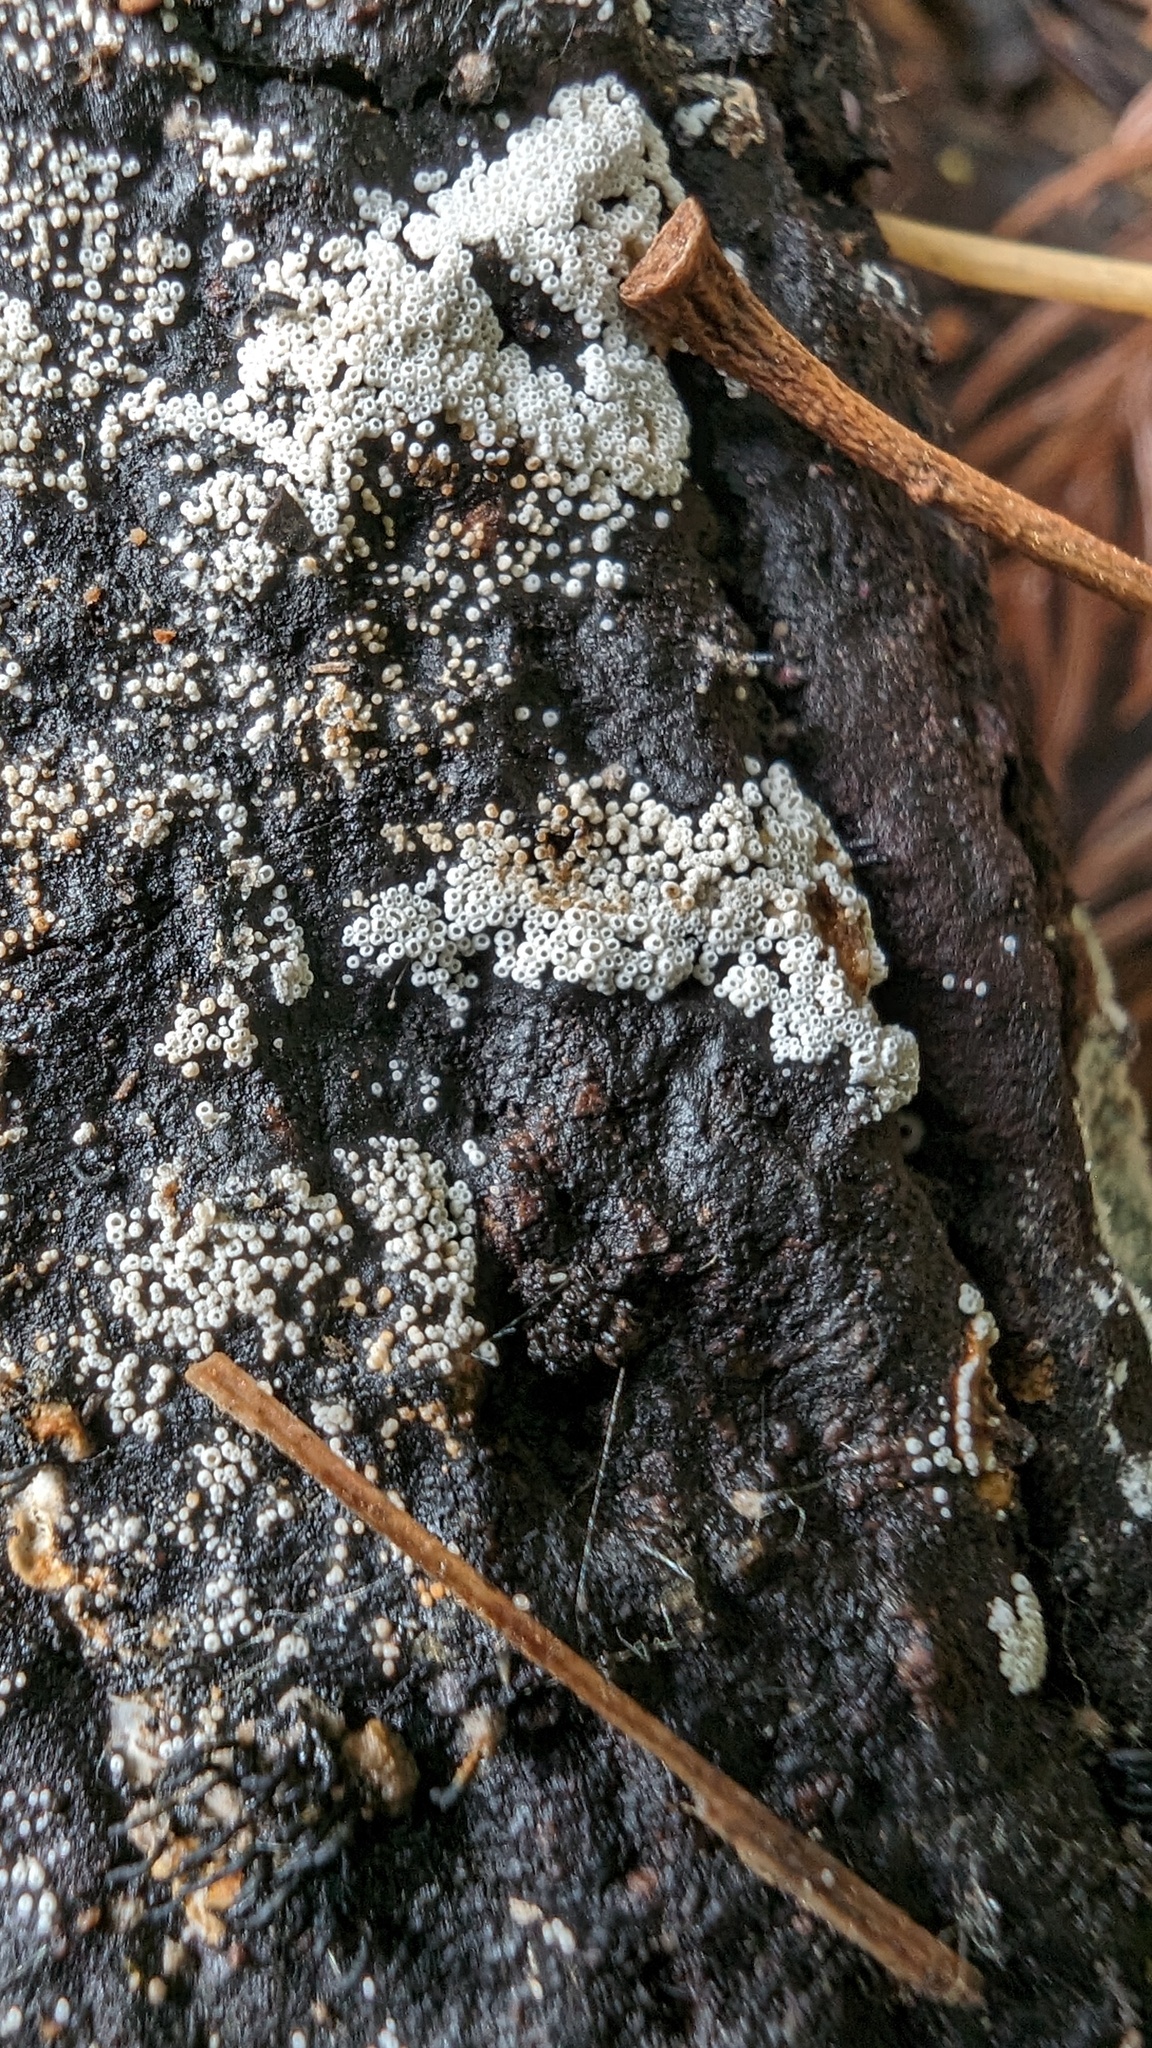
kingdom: Fungi
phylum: Basidiomycota
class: Agaricomycetes
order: Agaricales
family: Marasmiaceae
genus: Henningsomyces
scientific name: Henningsomyces candidus
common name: White tubelet
